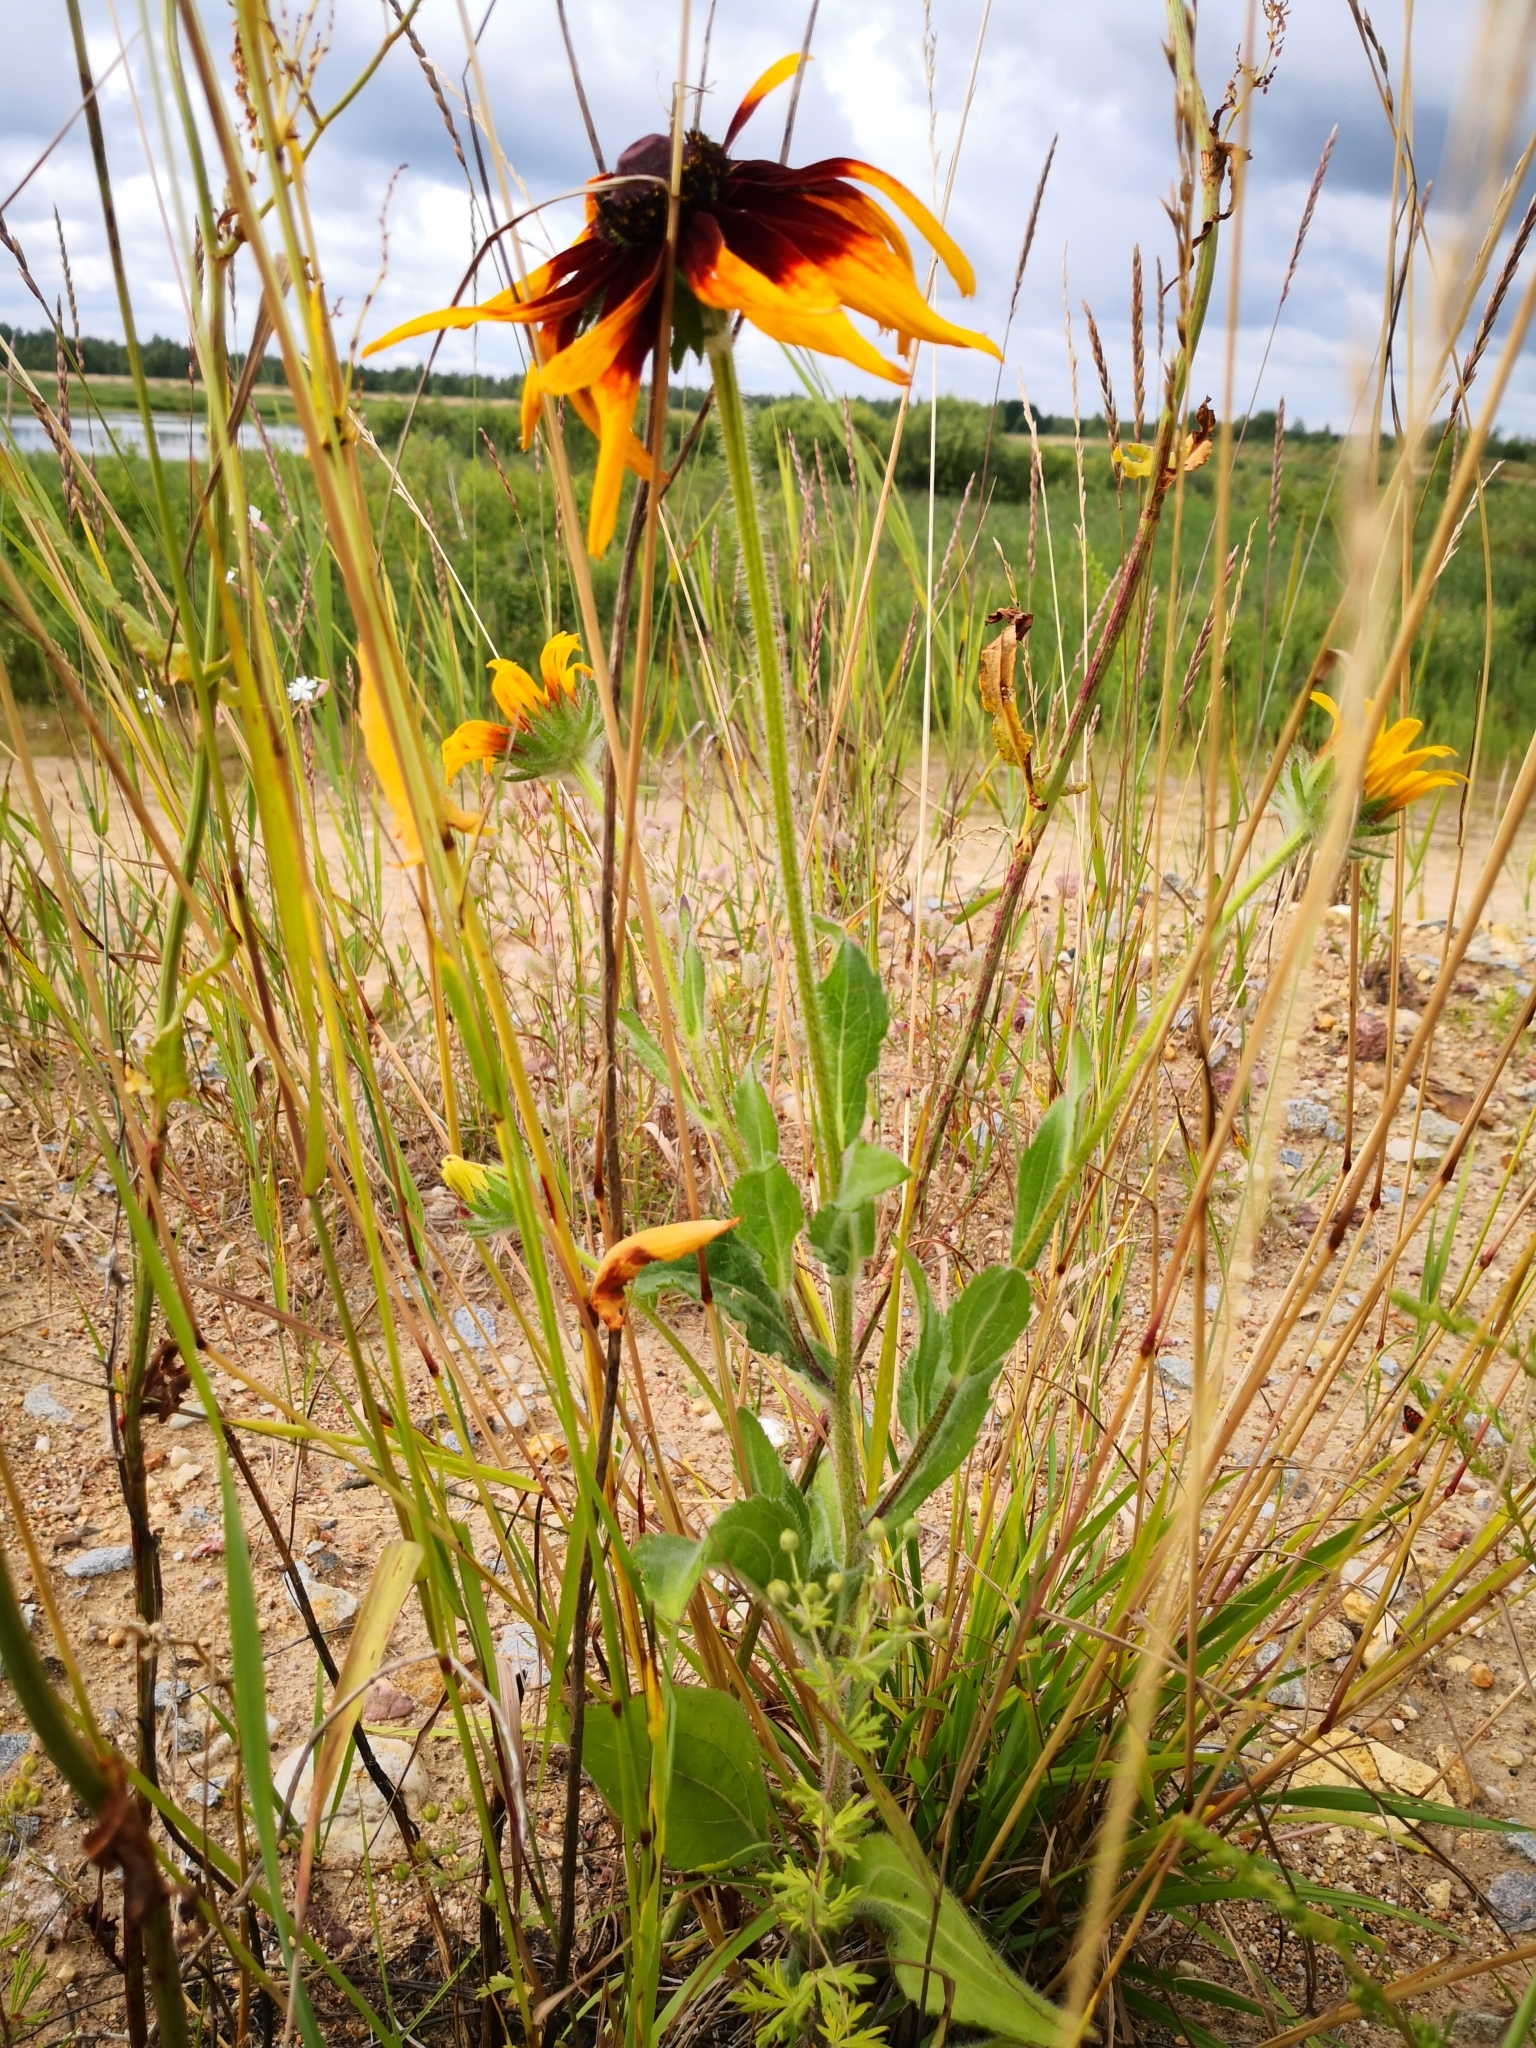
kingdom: Plantae
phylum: Tracheophyta
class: Magnoliopsida
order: Asterales
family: Asteraceae
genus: Rudbeckia
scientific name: Rudbeckia hirta
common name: Black-eyed-susan
